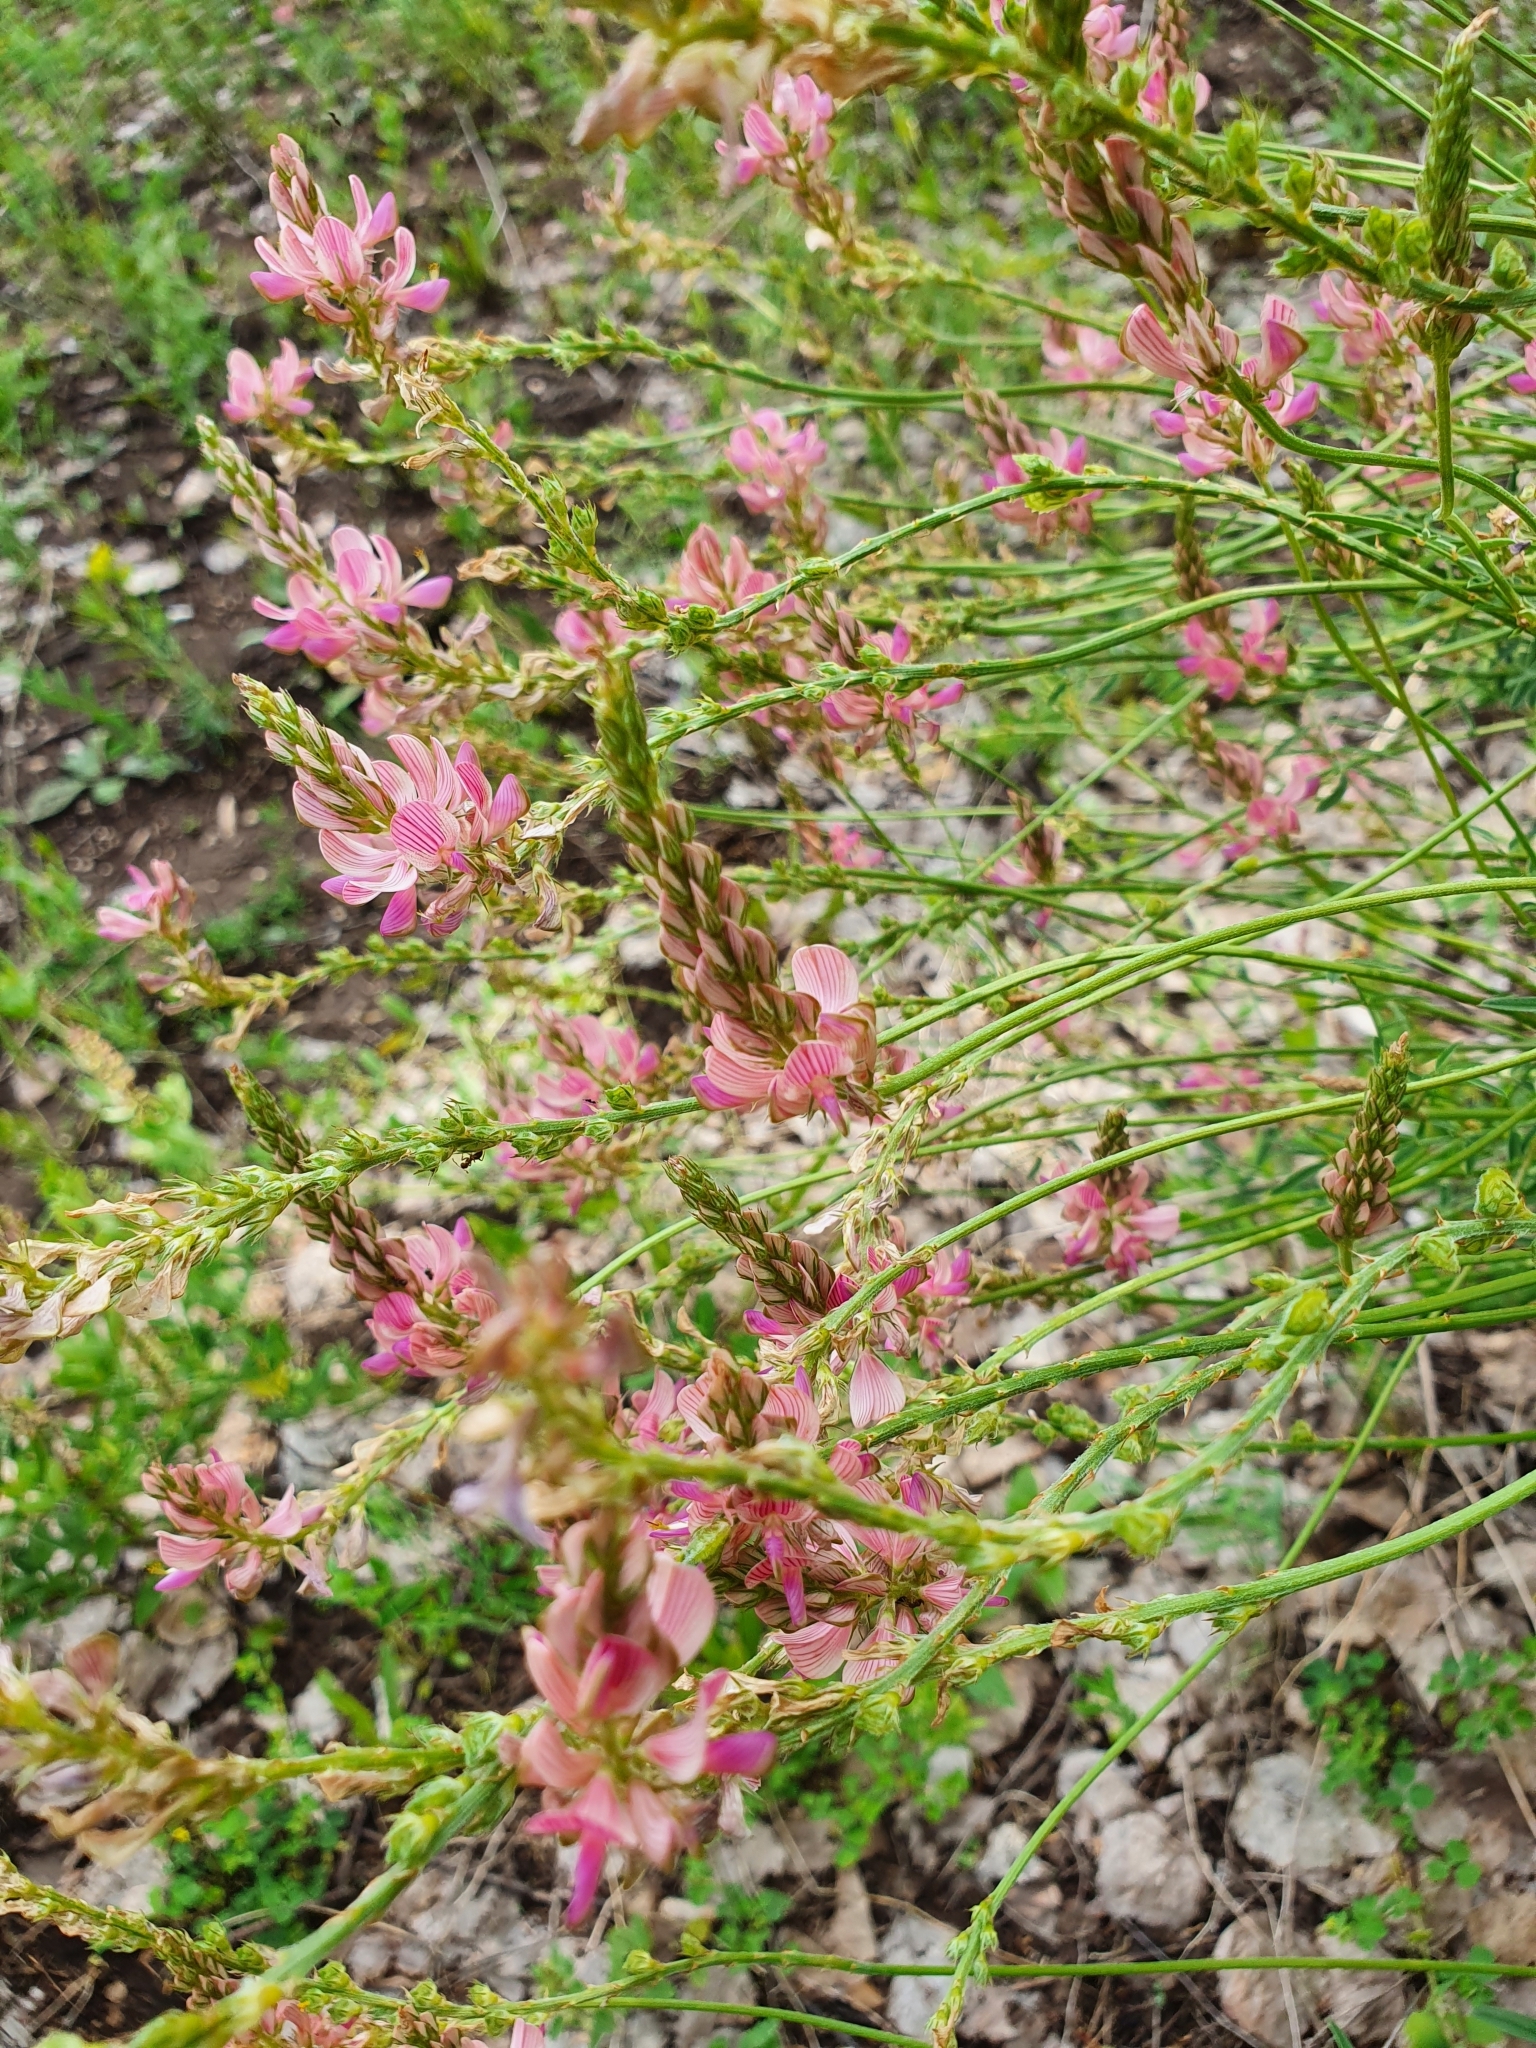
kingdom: Plantae
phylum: Tracheophyta
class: Magnoliopsida
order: Fabales
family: Fabaceae
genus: Onobrychis
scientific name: Onobrychis arenaria
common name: Sand esparcet
